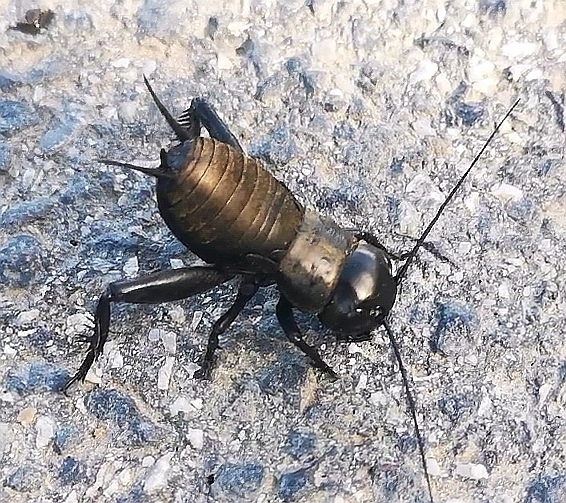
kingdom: Animalia
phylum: Arthropoda
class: Insecta
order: Orthoptera
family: Gryllidae
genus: Gryllus
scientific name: Gryllus campestris
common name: Field cricket
